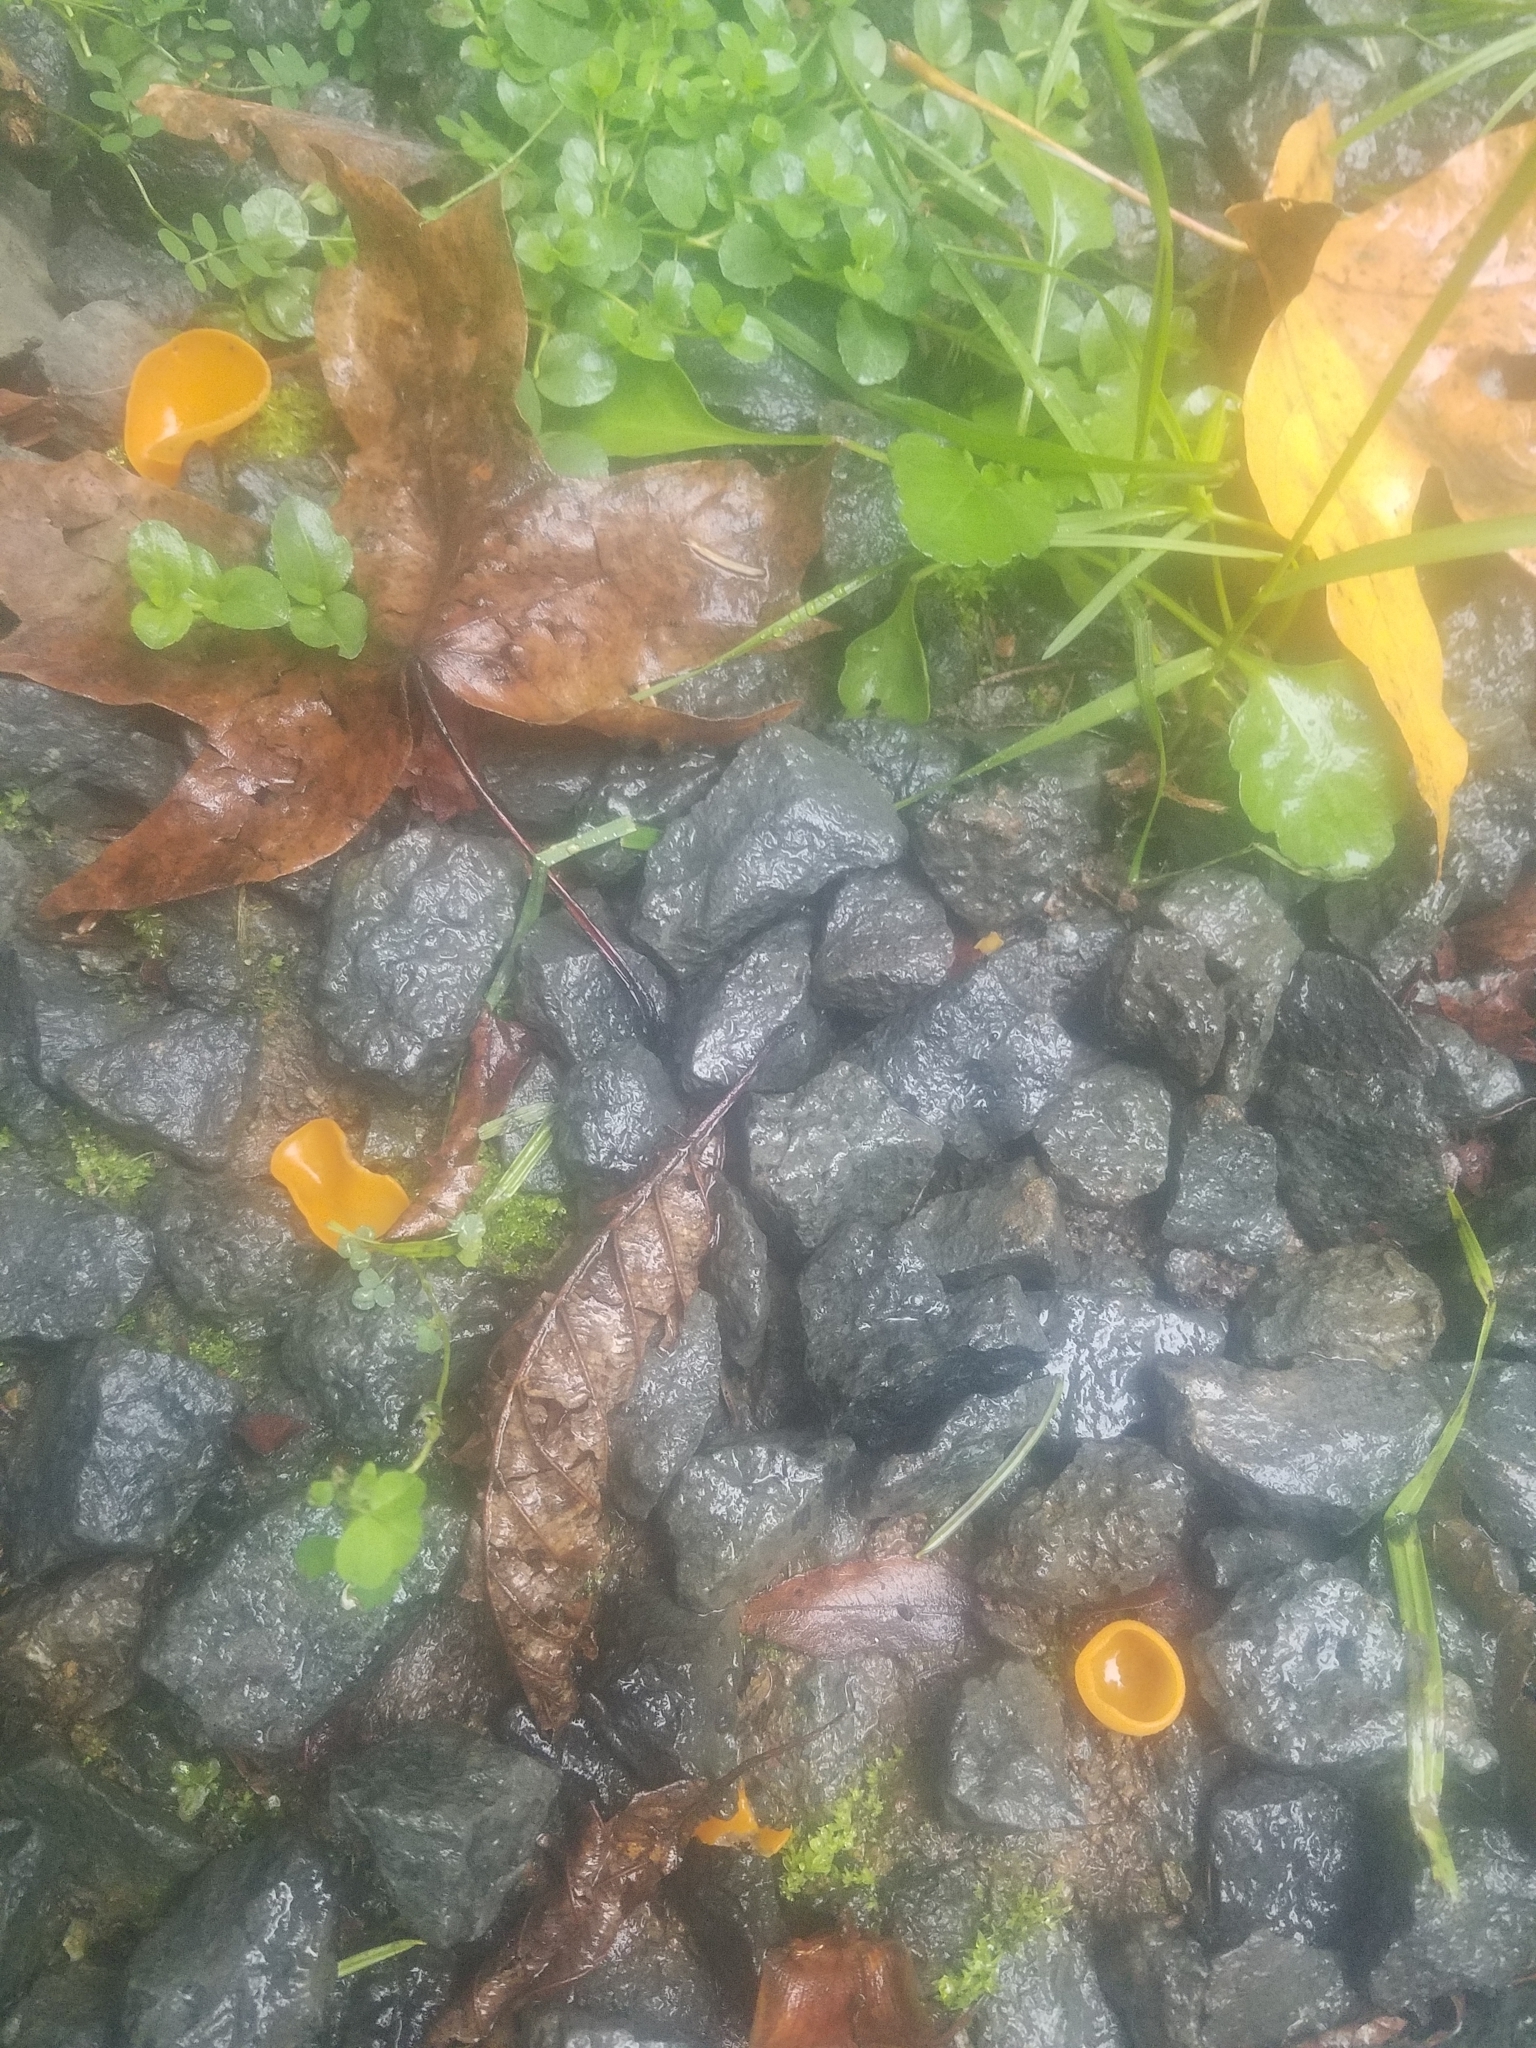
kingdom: Fungi
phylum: Ascomycota
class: Pezizomycetes
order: Pezizales
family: Pyronemataceae
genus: Aleuria
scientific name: Aleuria aurantia
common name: Orange peel fungus
